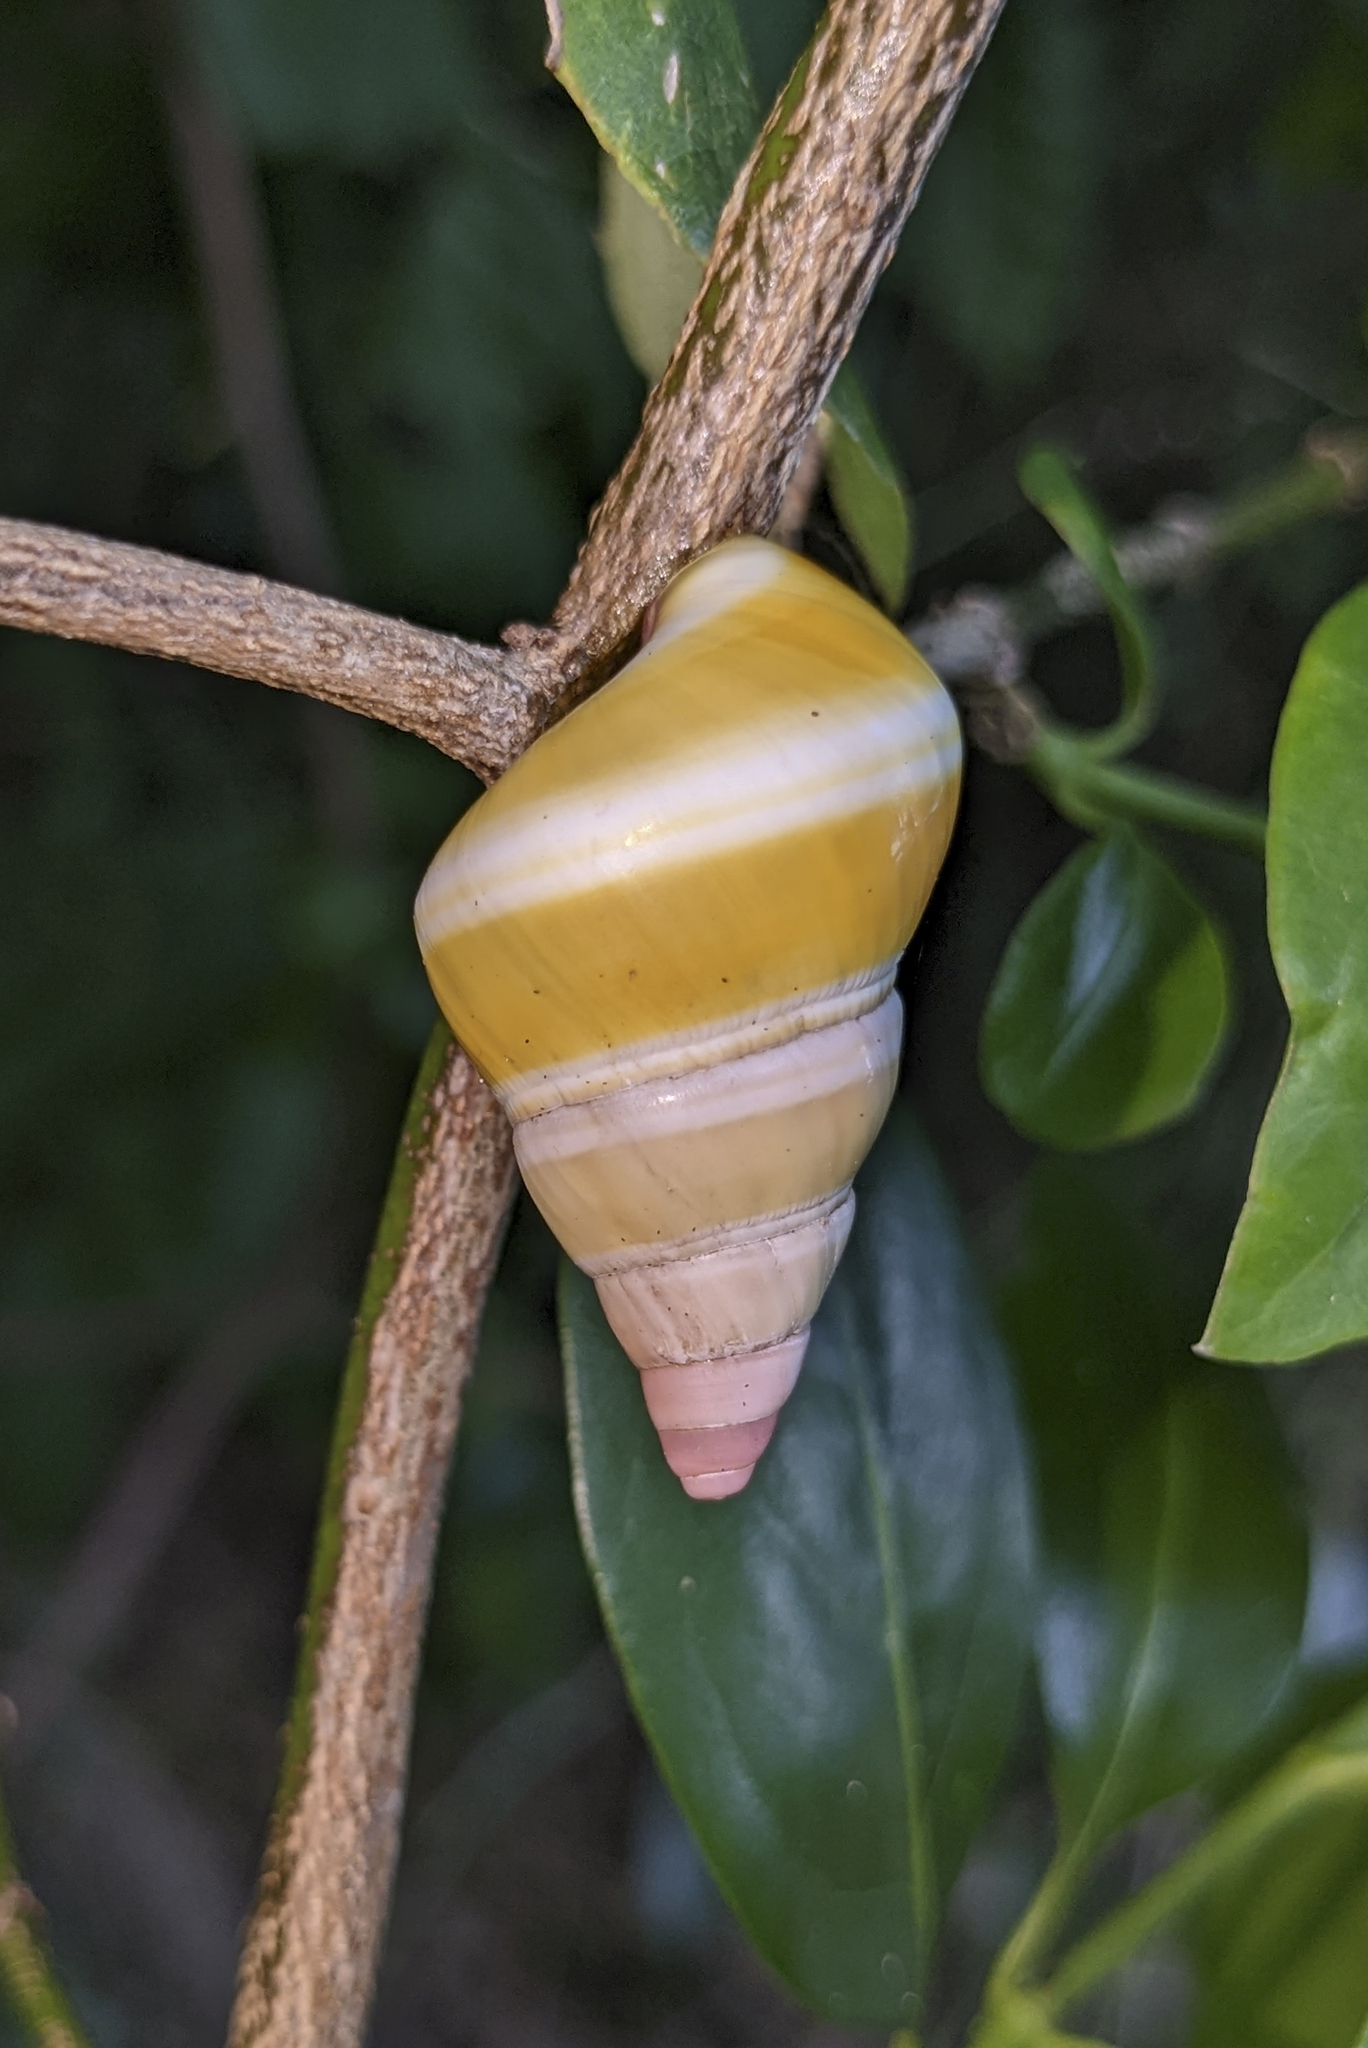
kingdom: Animalia
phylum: Mollusca
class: Gastropoda
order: Stylommatophora
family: Orthalicidae
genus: Liguus
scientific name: Liguus fasciatus
